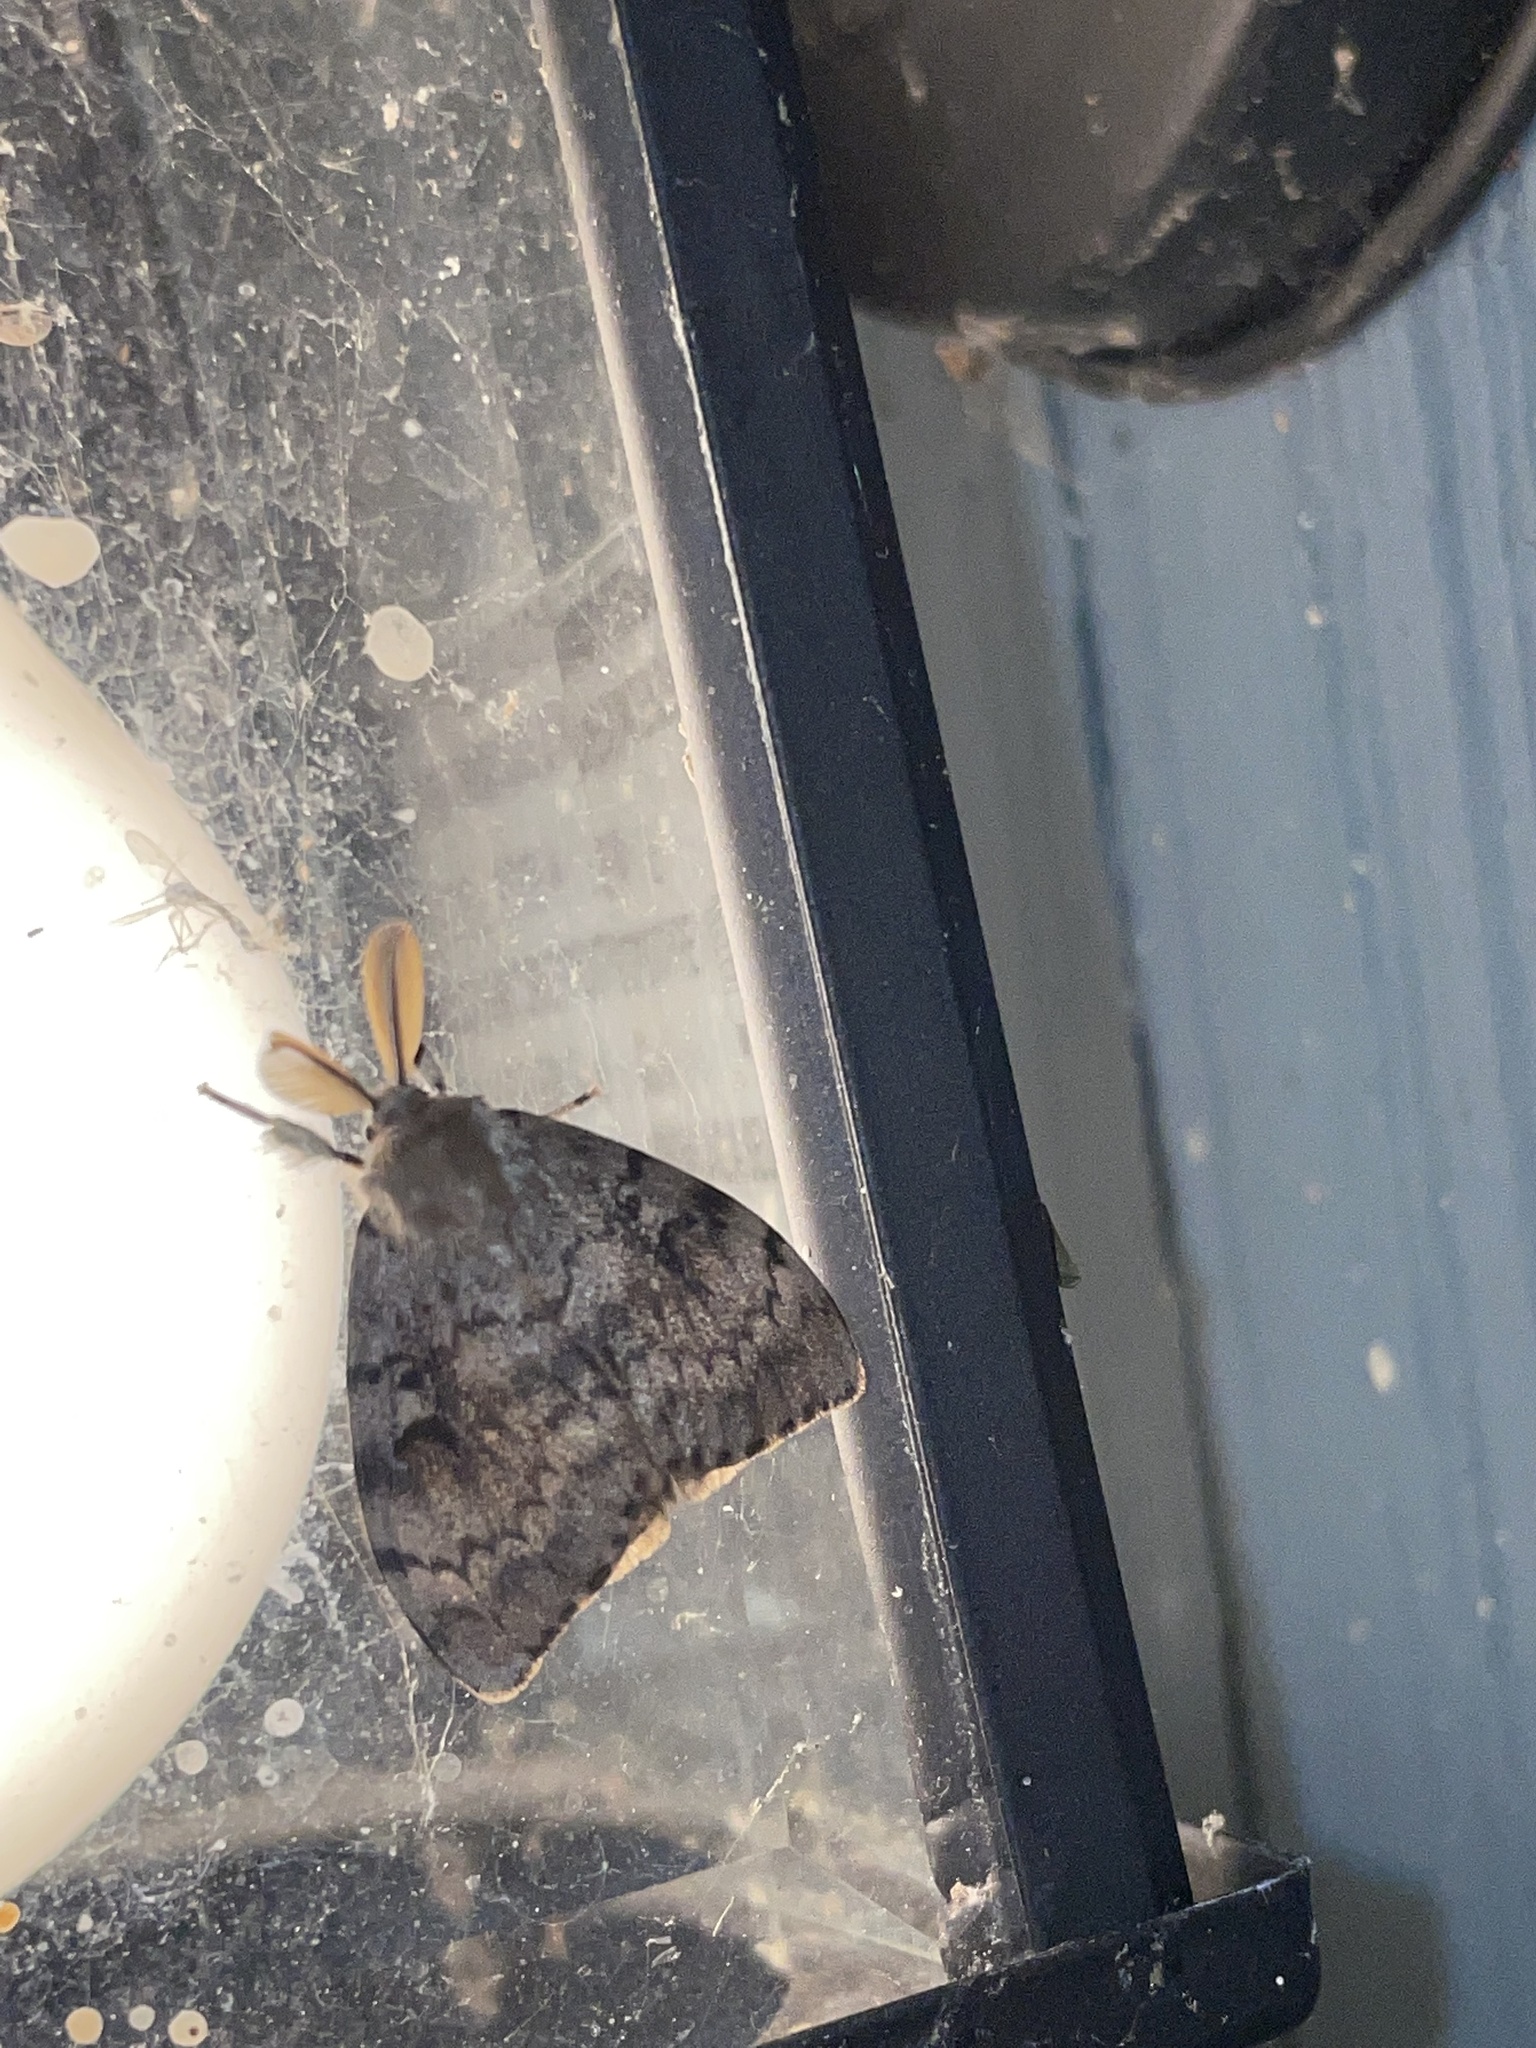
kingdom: Animalia
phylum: Arthropoda
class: Insecta
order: Lepidoptera
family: Erebidae
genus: Lymantria
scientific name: Lymantria dispar
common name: Gypsy moth
